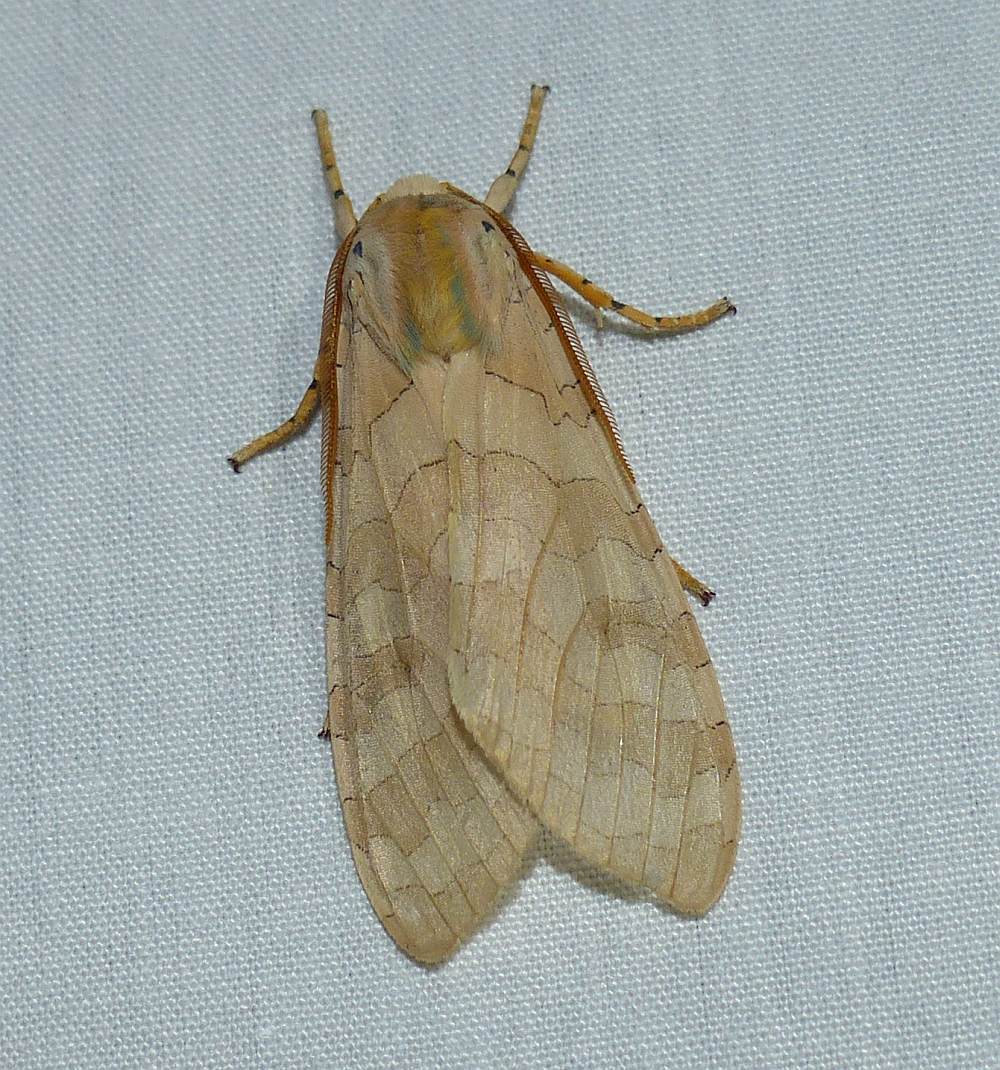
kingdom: Animalia
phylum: Arthropoda
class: Insecta
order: Lepidoptera
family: Erebidae
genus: Halysidota
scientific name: Halysidota tessellaris
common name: Banded tussock moth
